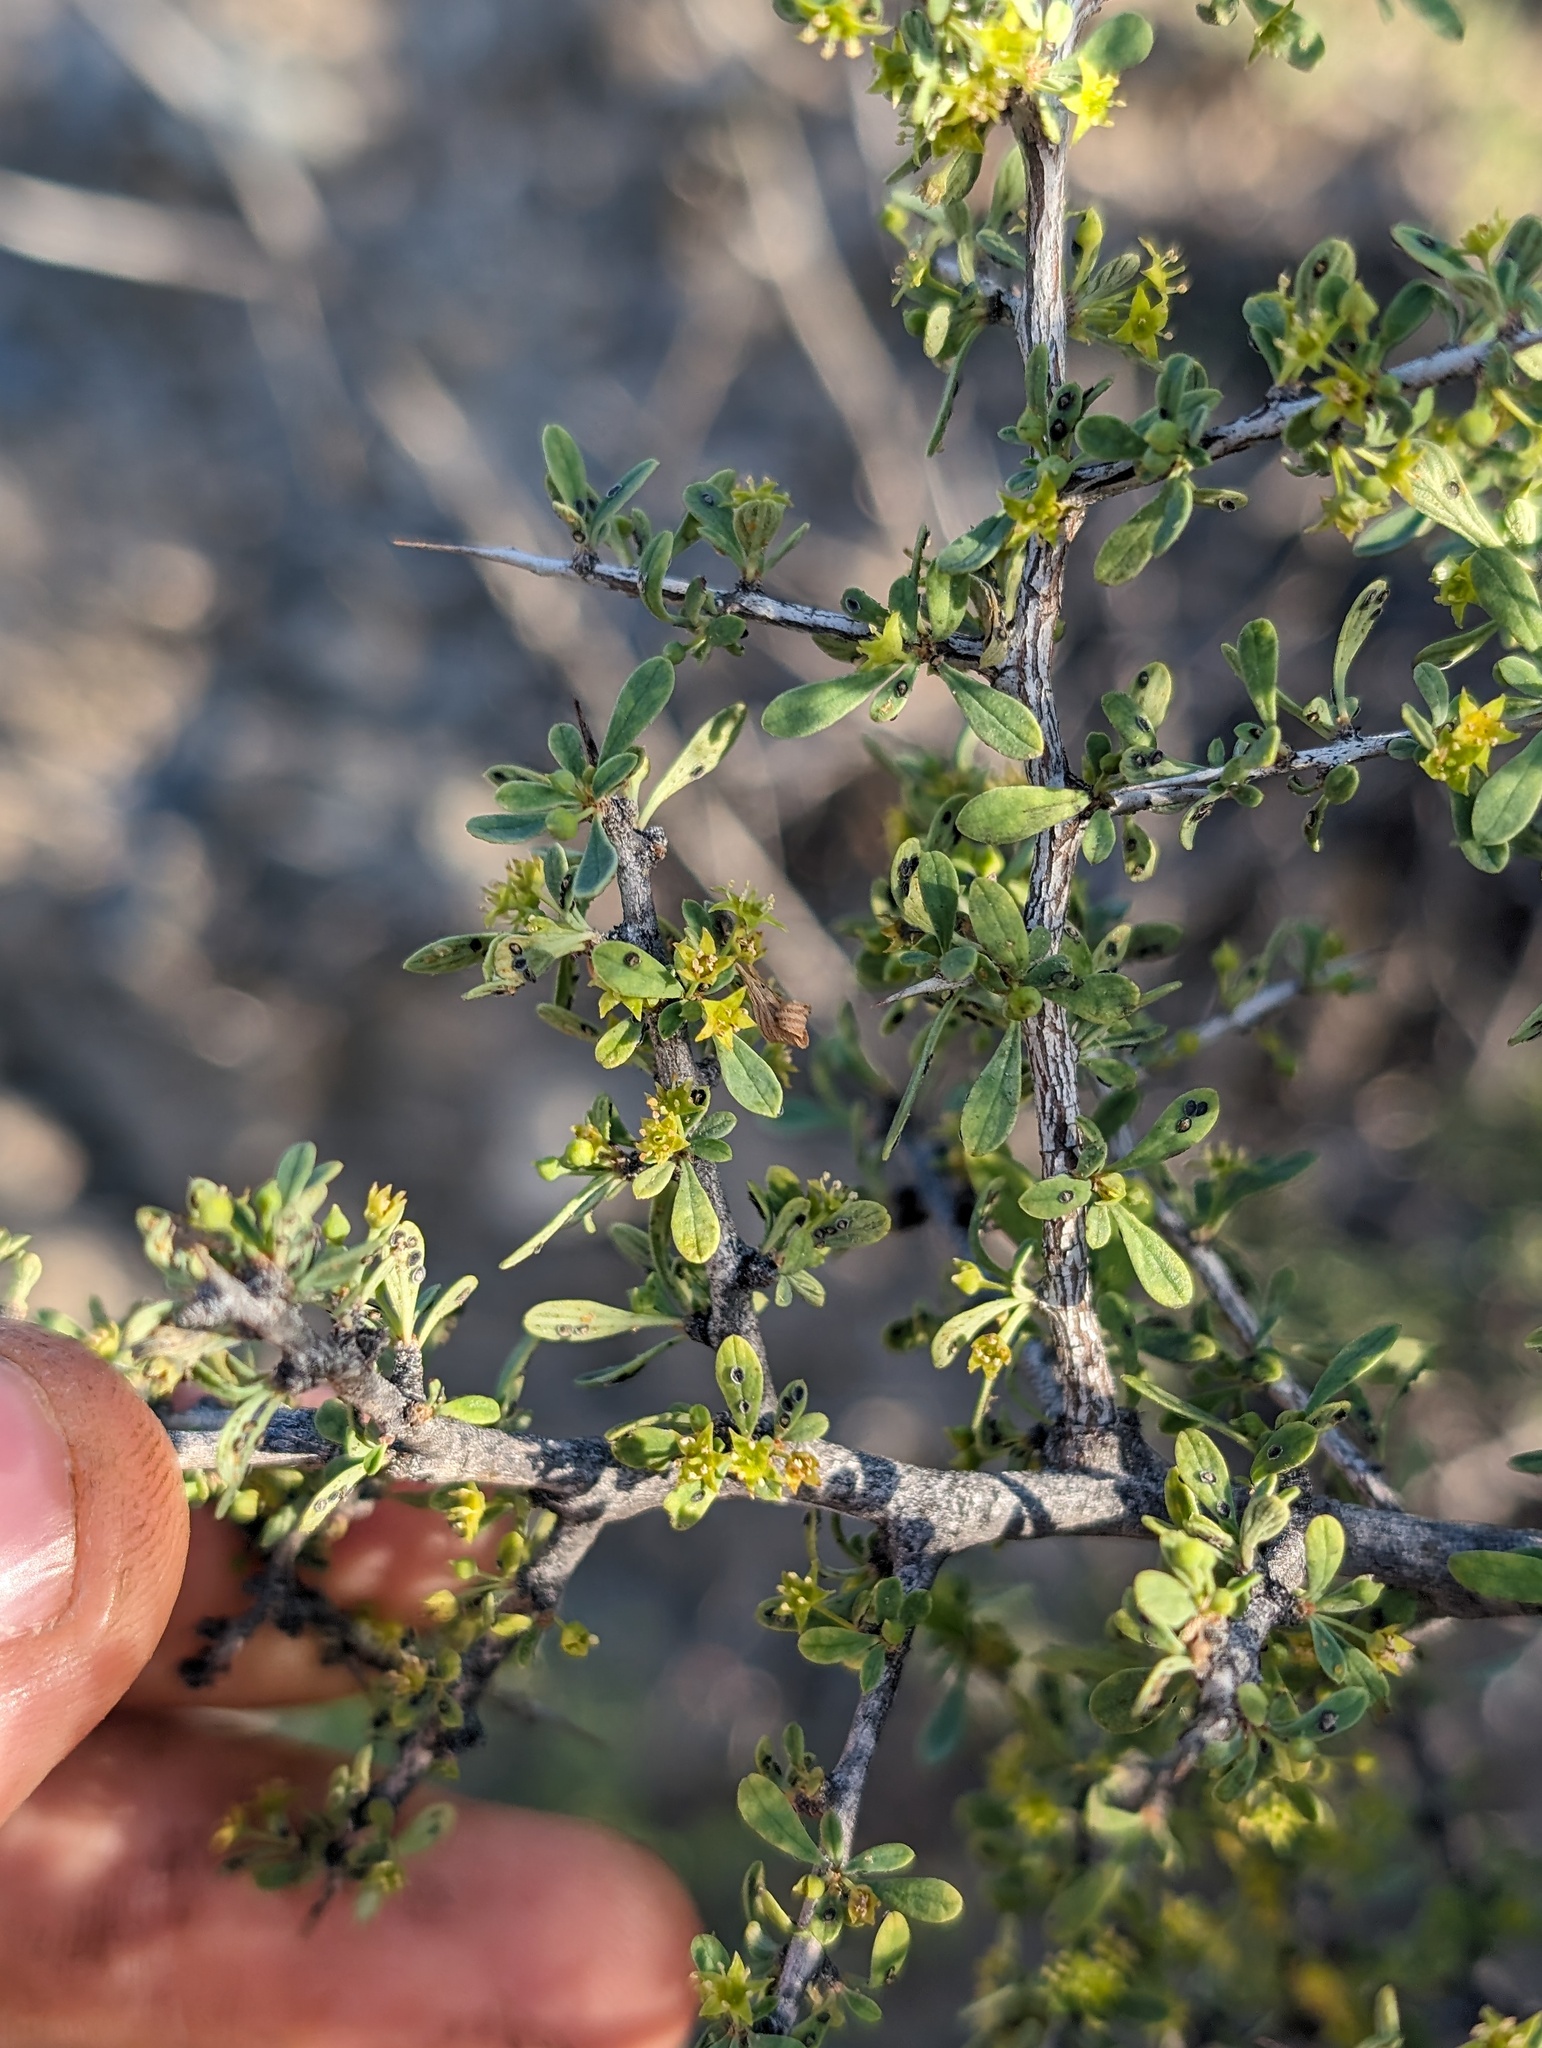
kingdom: Plantae
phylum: Tracheophyta
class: Magnoliopsida
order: Rosales
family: Rhamnaceae
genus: Condalia
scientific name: Condalia globosa
